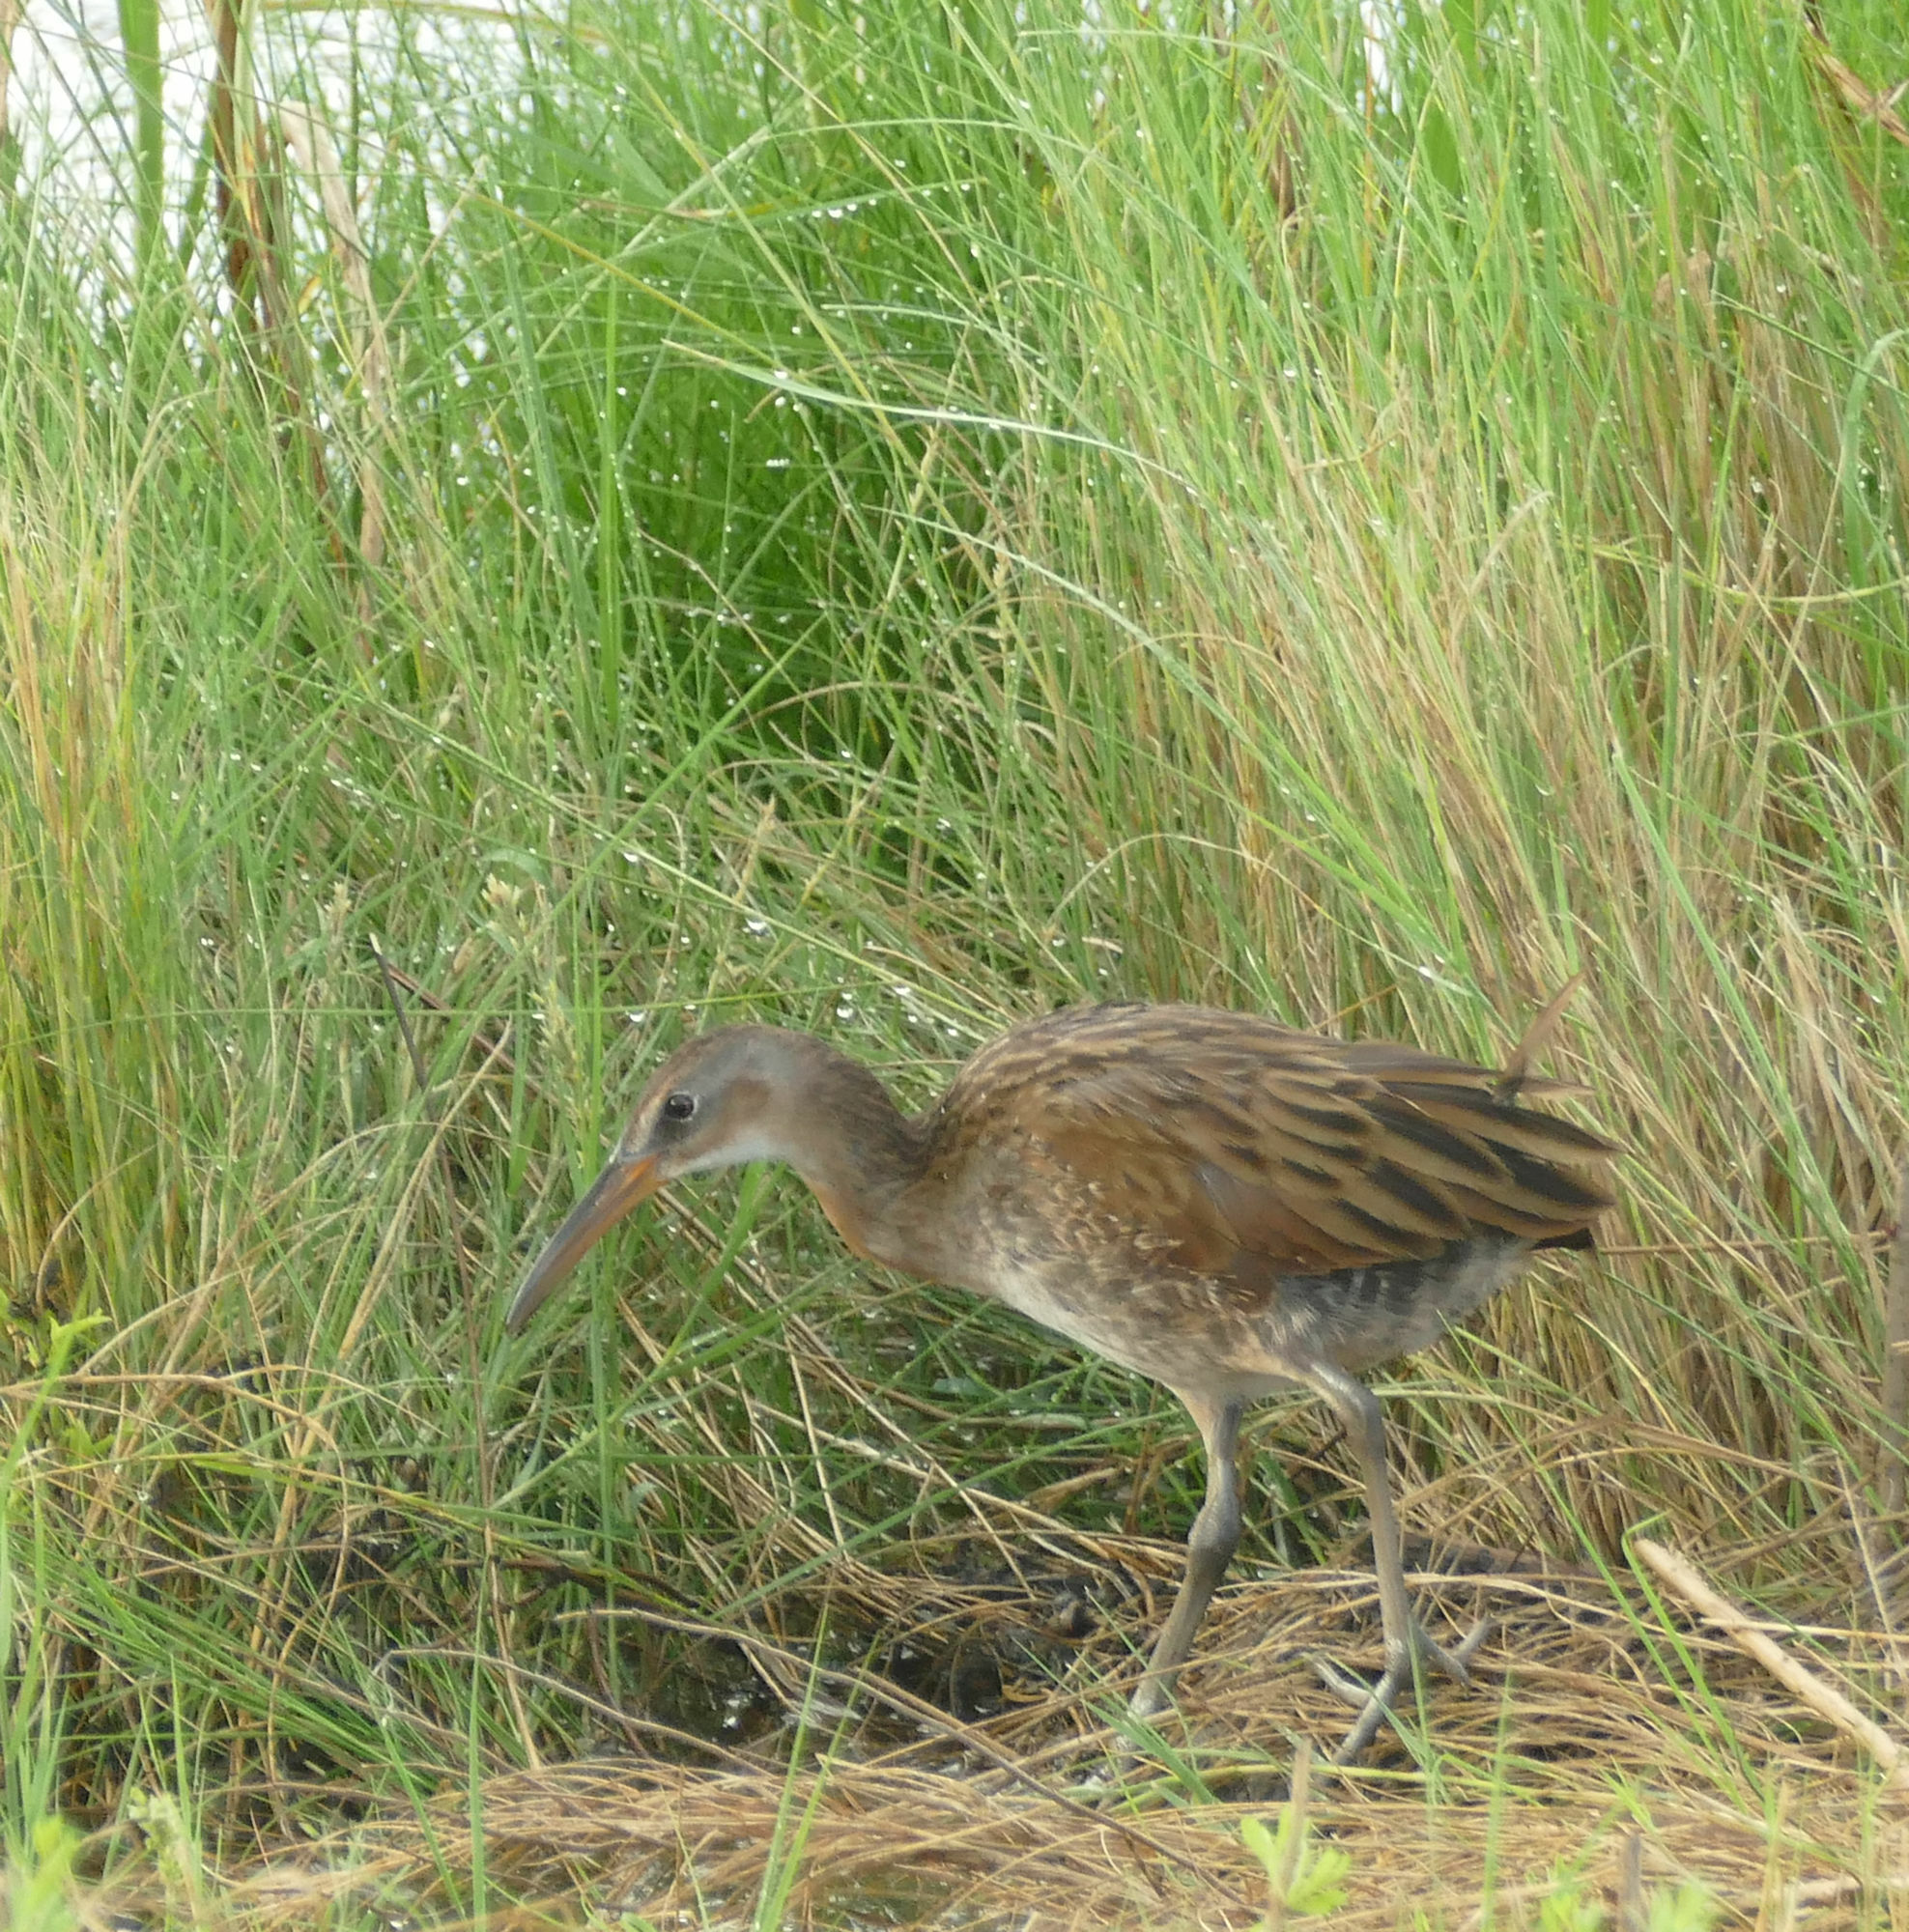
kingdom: Animalia
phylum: Chordata
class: Aves
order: Gruiformes
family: Rallidae
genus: Rallus
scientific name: Rallus elegans
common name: King rail
